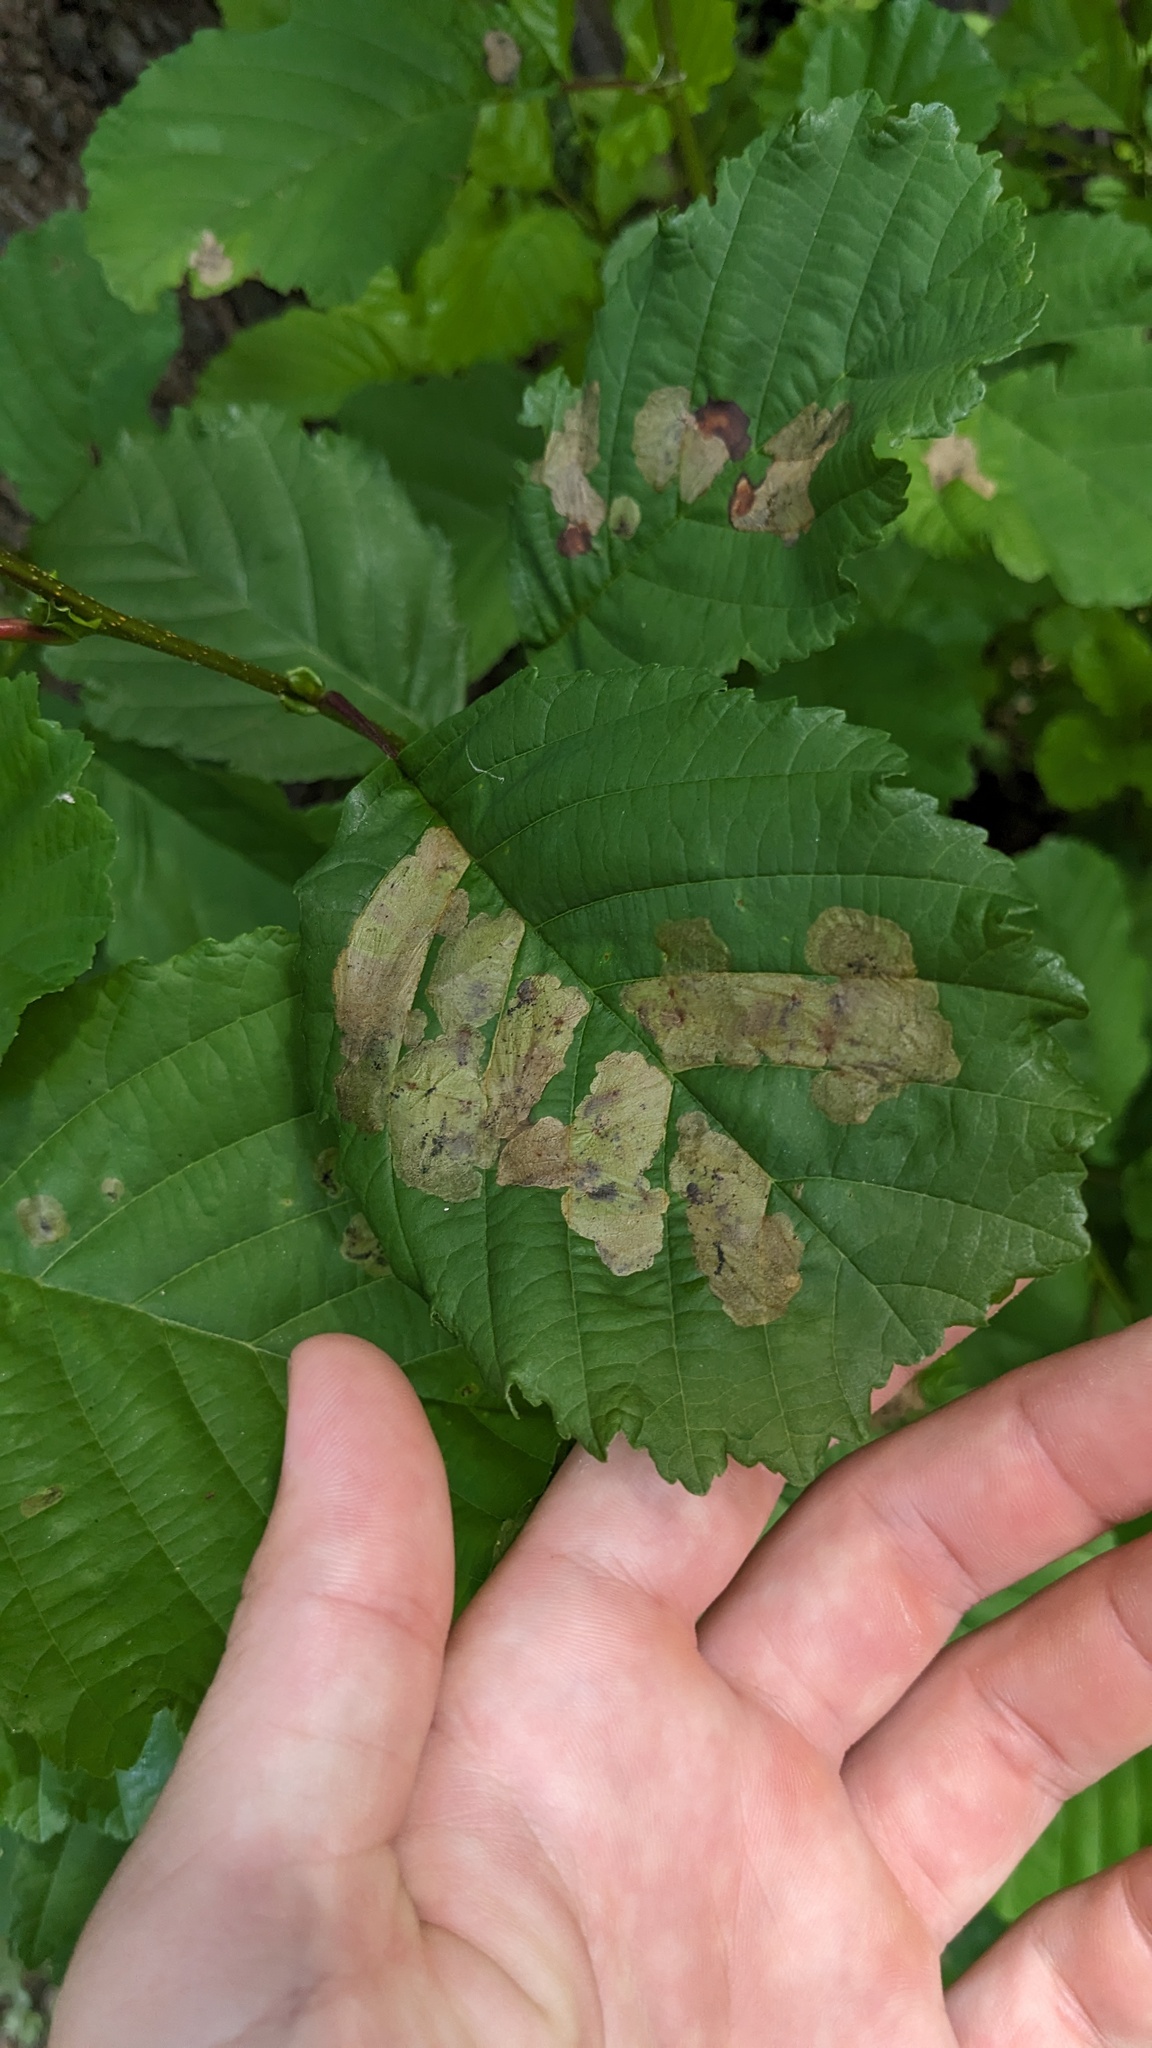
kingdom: Animalia
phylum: Arthropoda
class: Insecta
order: Hymenoptera
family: Tenthredinidae
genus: Fenusa
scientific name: Fenusa dohrnii
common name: European alder leafminer
